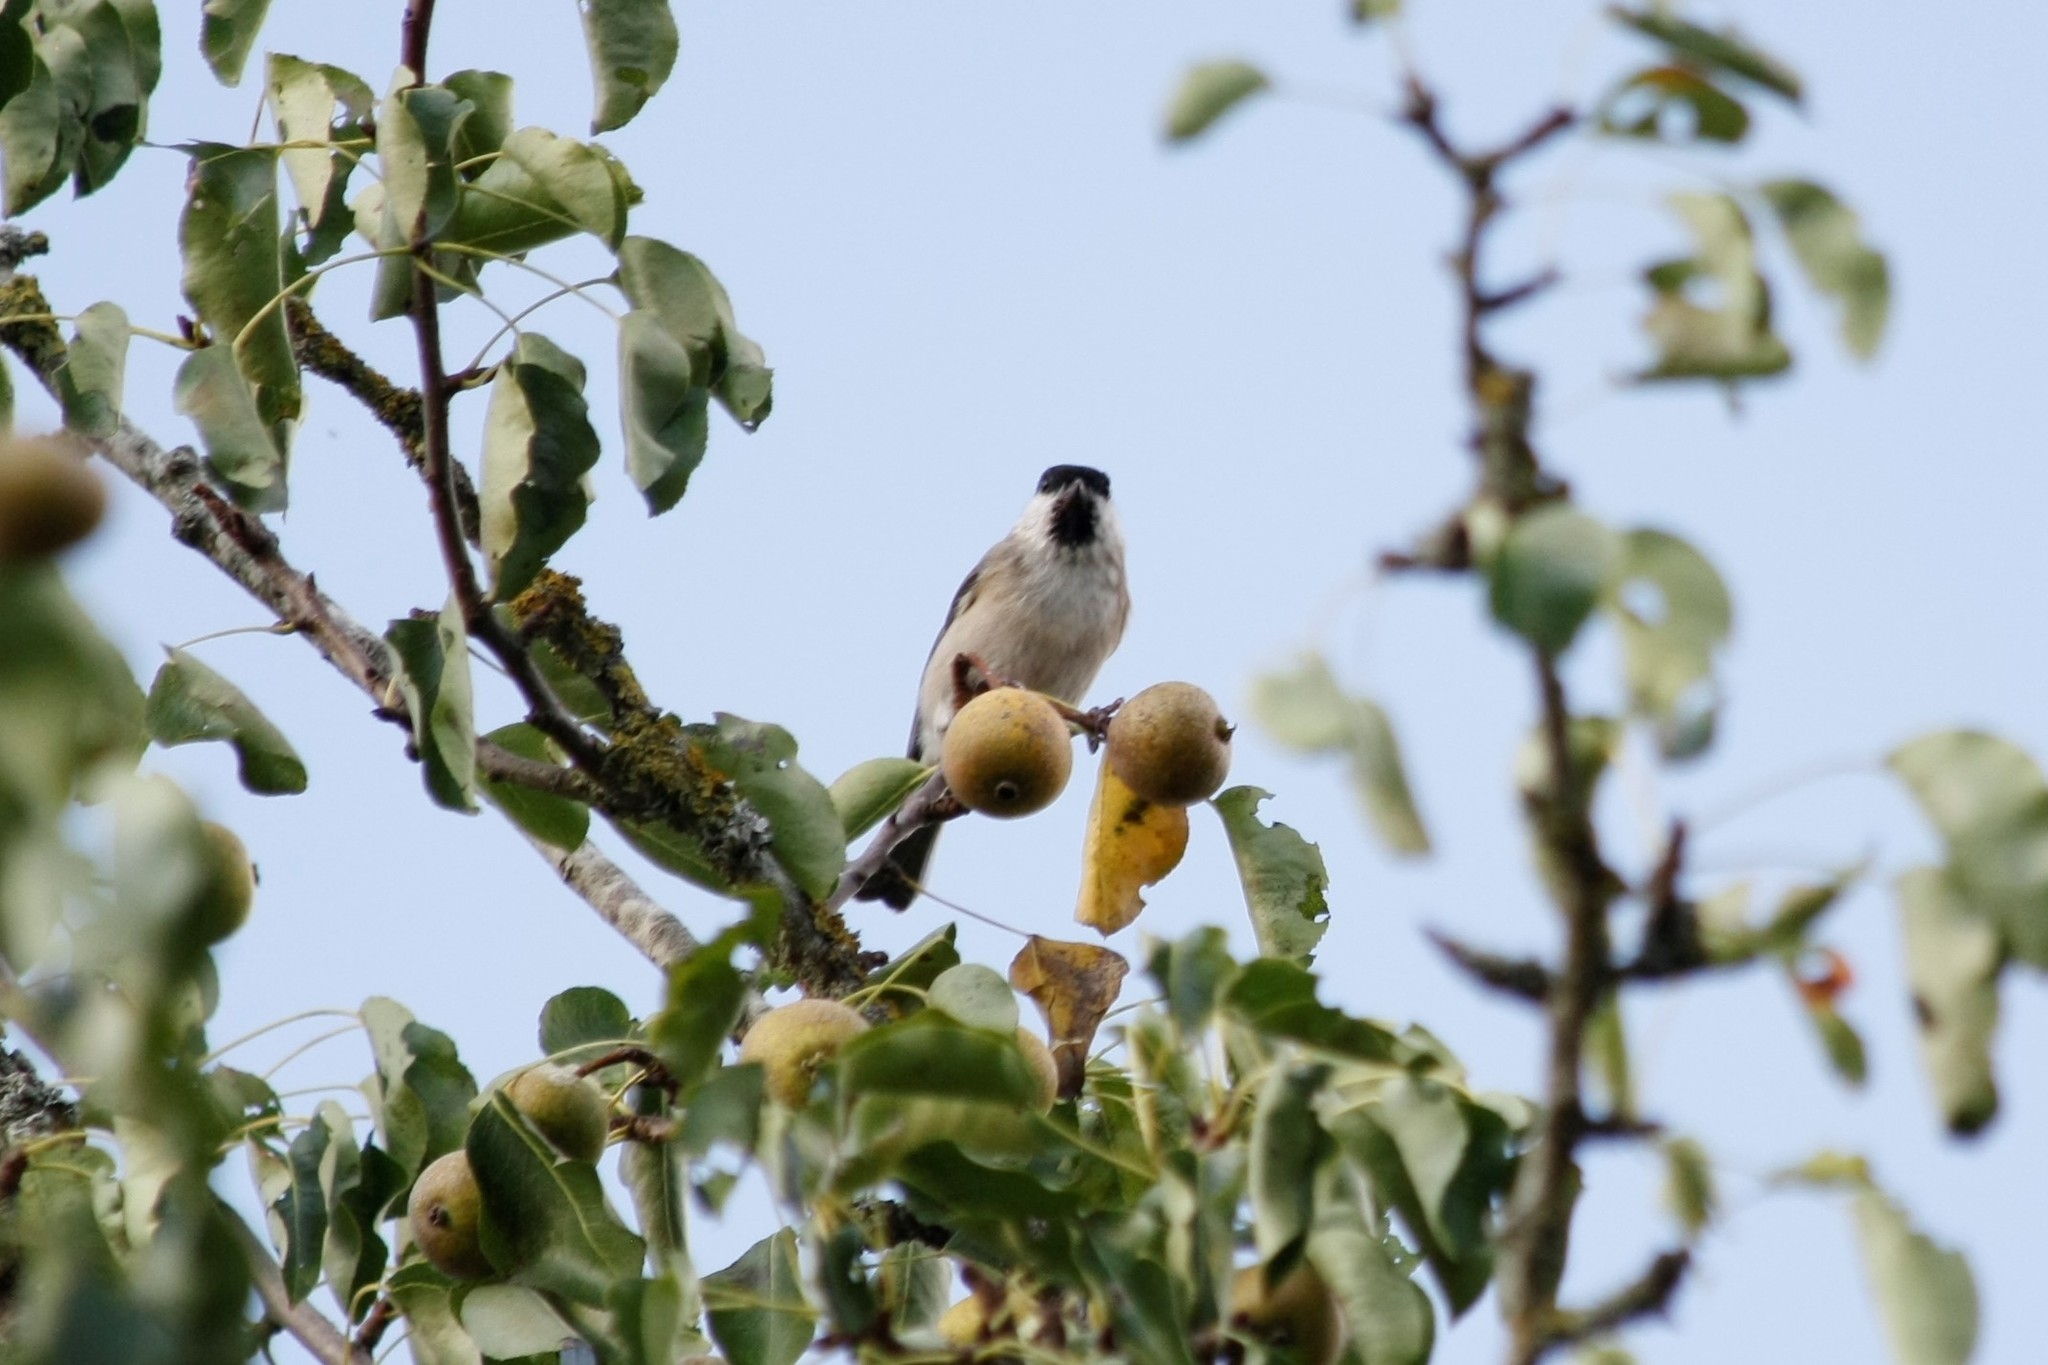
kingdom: Animalia
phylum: Chordata
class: Aves
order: Passeriformes
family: Paridae
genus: Poecile
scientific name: Poecile palustris
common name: Marsh tit
